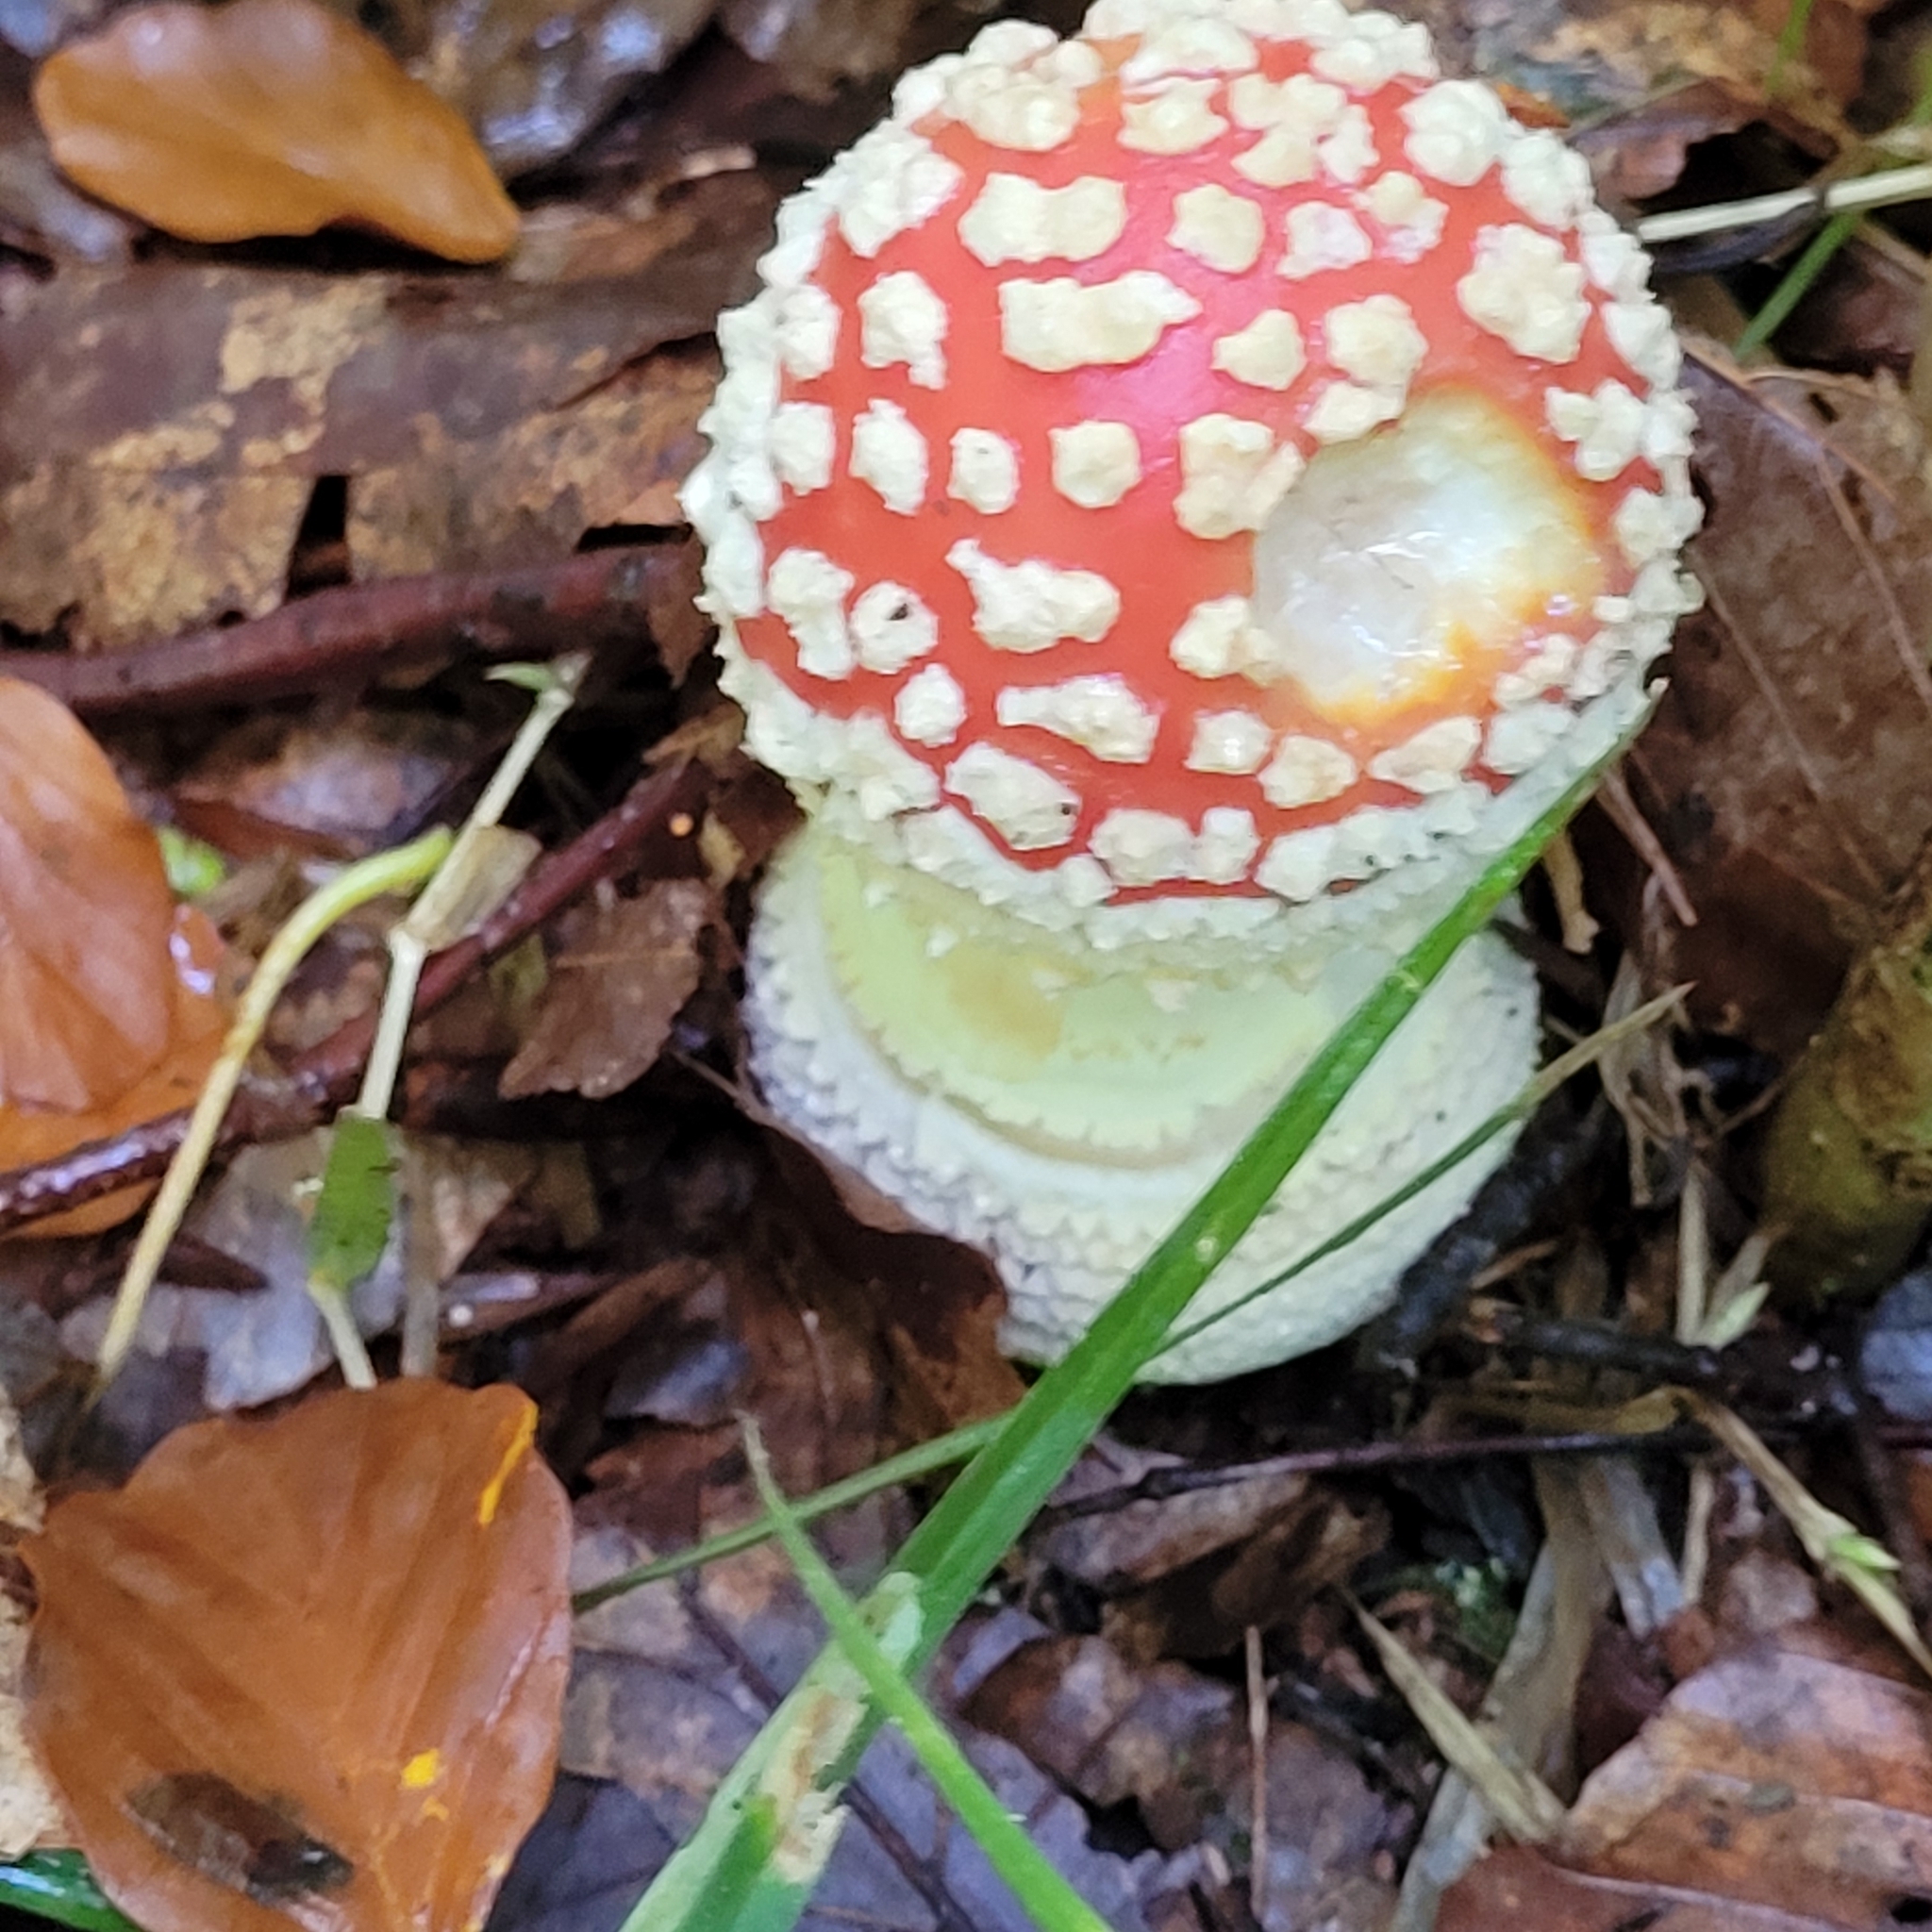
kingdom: Fungi
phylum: Basidiomycota
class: Agaricomycetes
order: Agaricales
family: Amanitaceae
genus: Amanita
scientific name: Amanita muscaria
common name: Fly agaric
